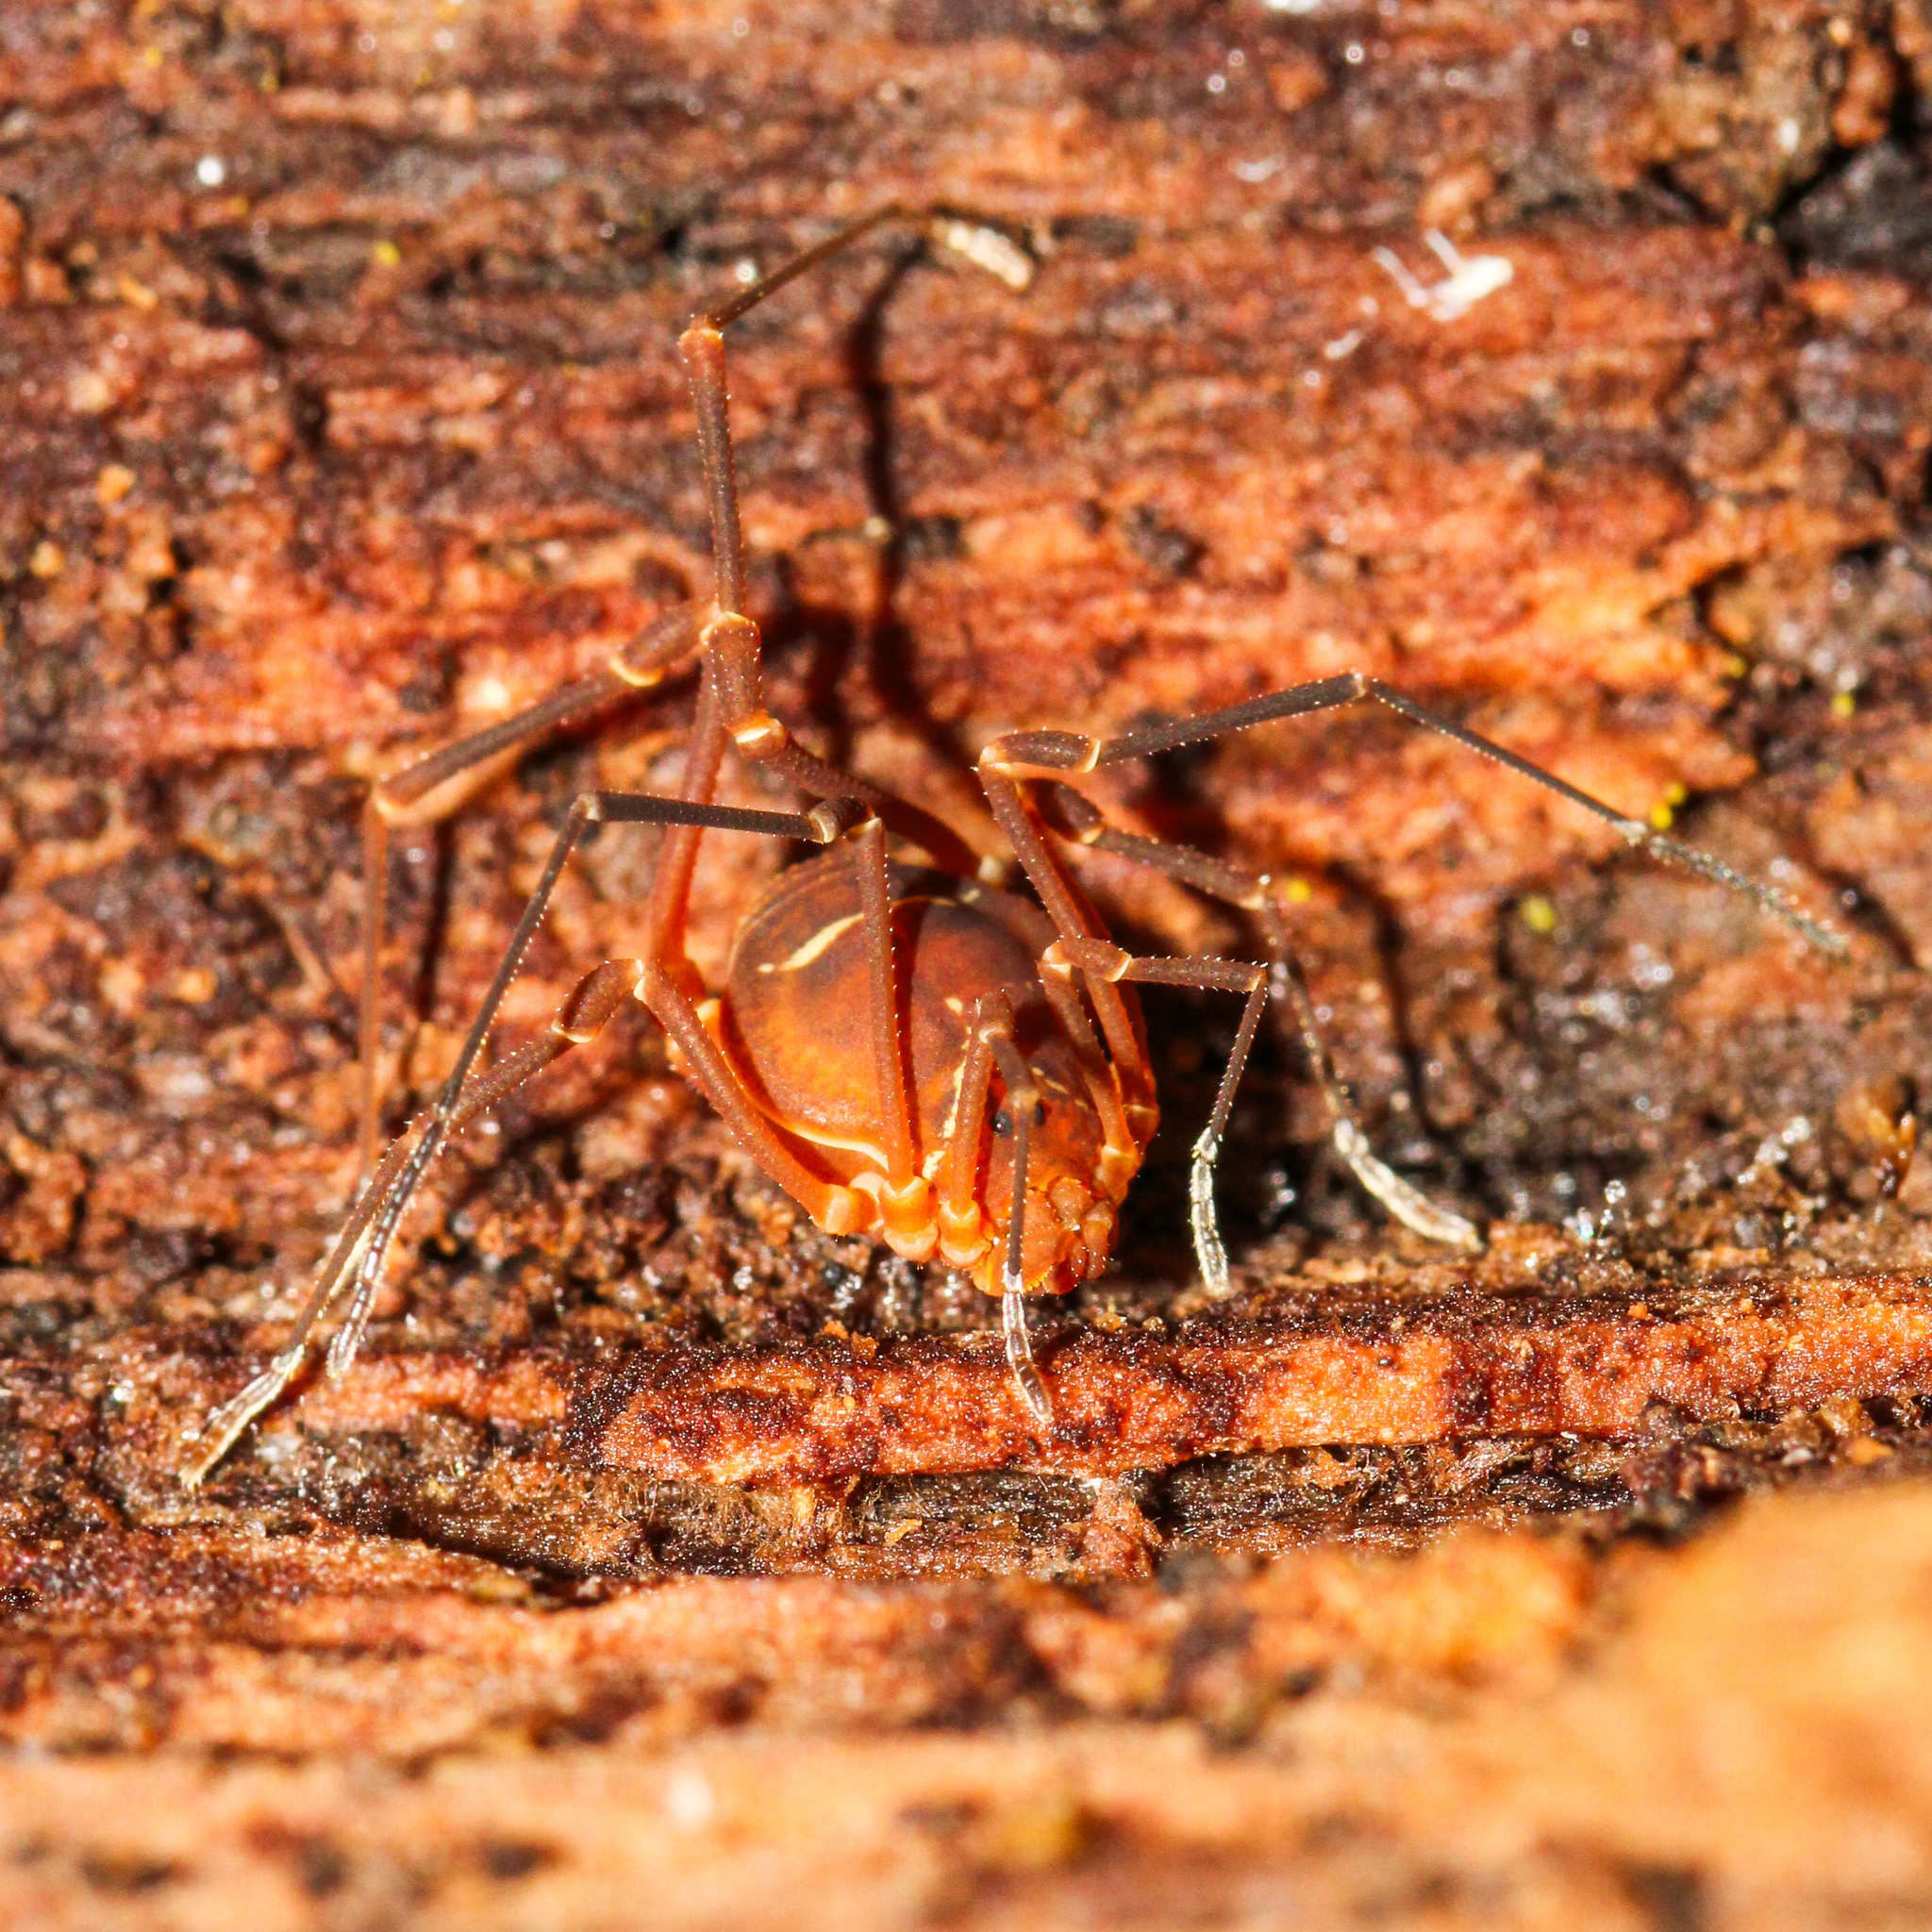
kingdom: Animalia
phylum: Arthropoda
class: Arachnida
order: Opiliones
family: Cosmetidae
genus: Libitioides
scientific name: Libitioides sayi
